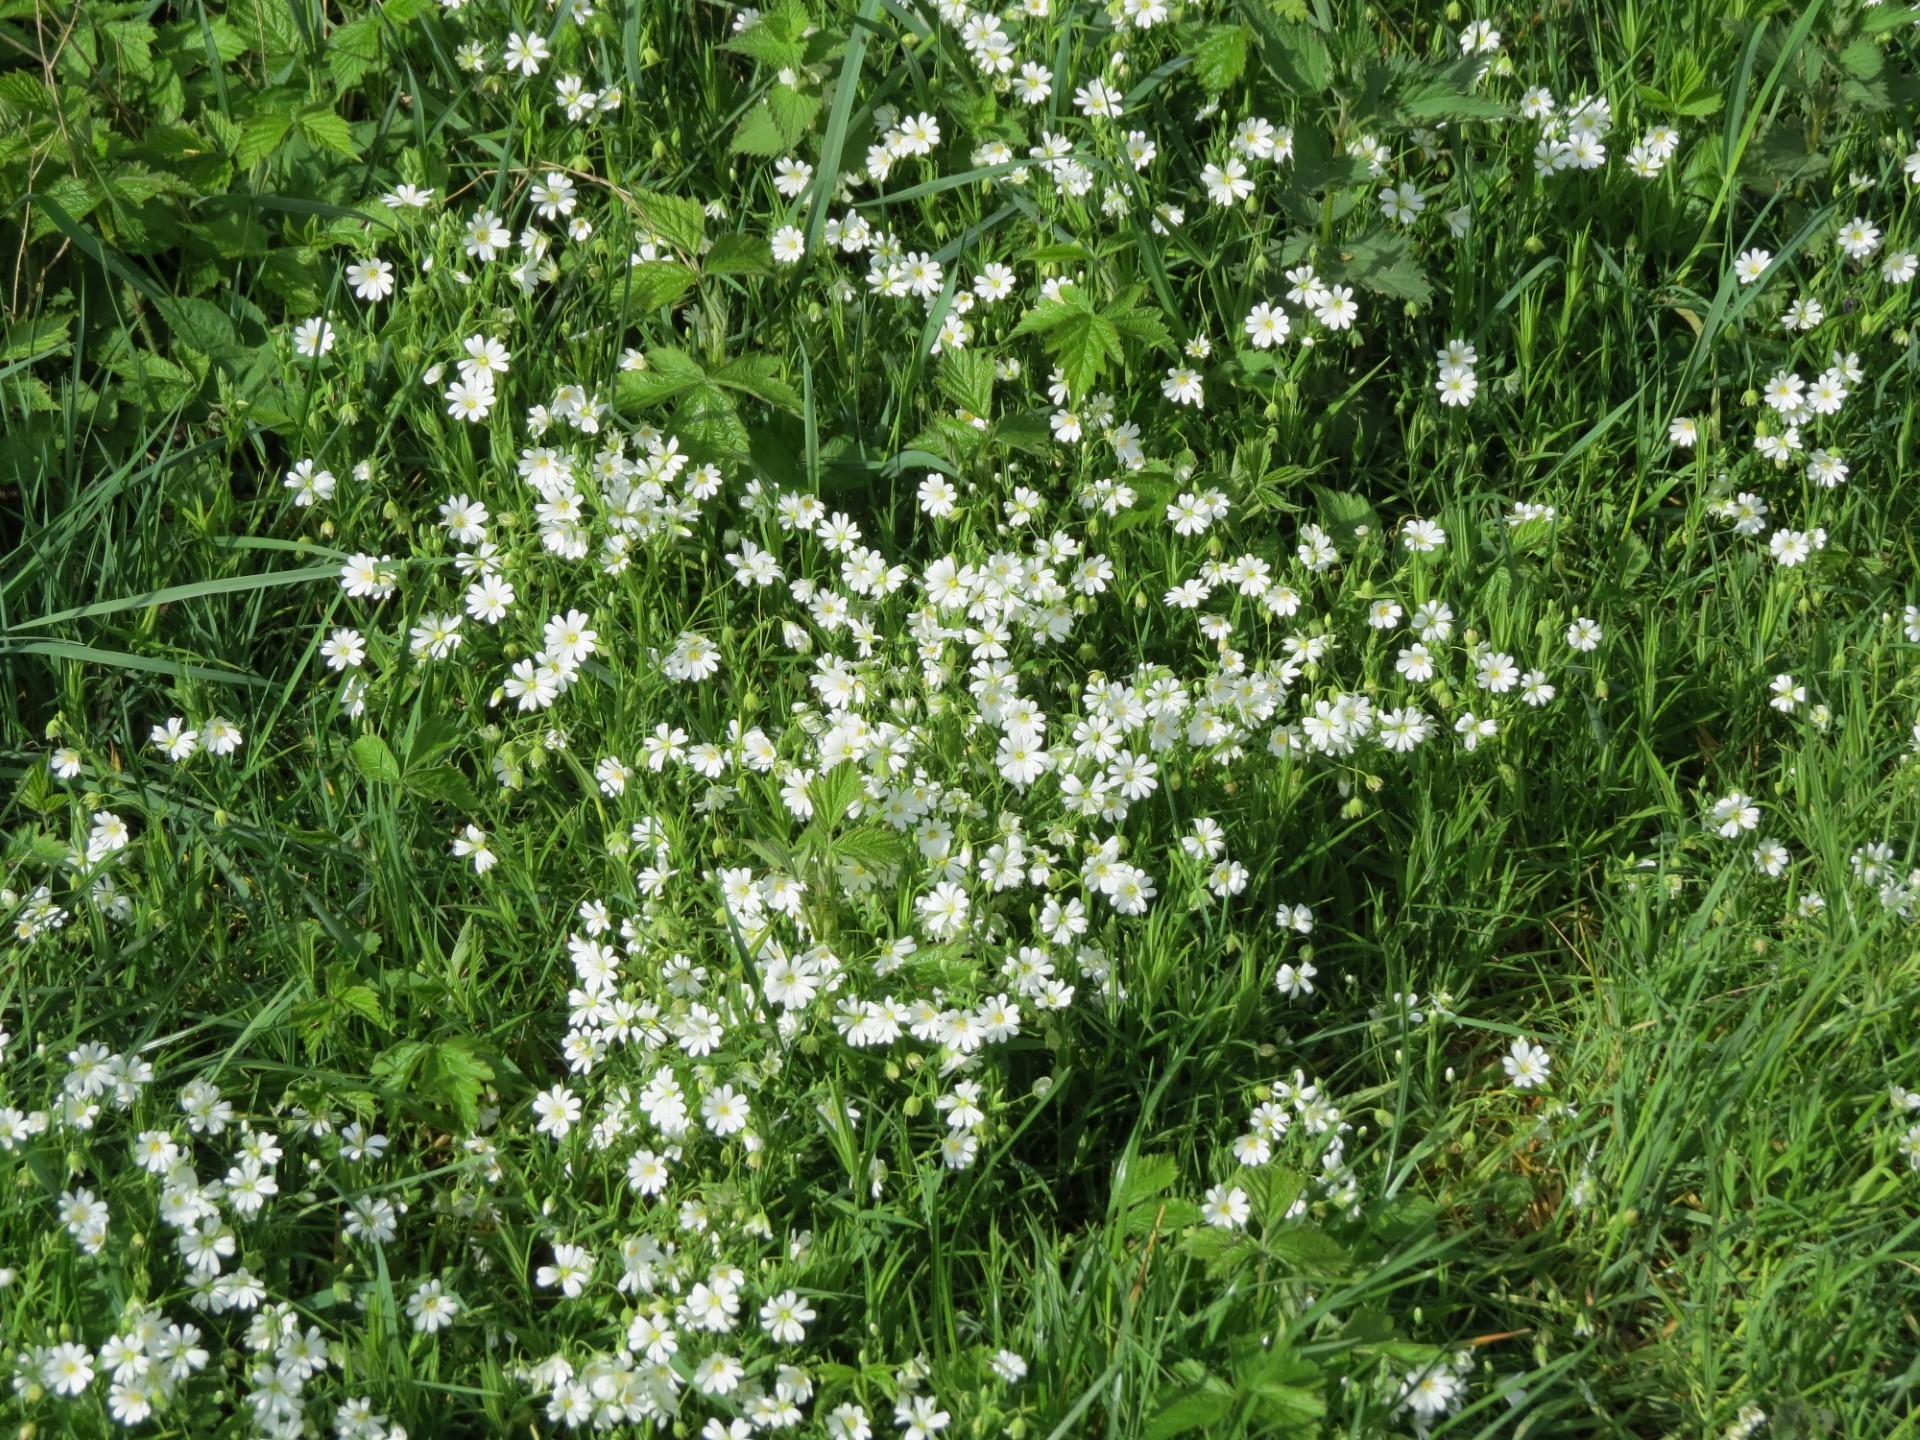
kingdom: Plantae
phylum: Tracheophyta
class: Magnoliopsida
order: Caryophyllales
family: Caryophyllaceae
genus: Rabelera
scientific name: Rabelera holostea
